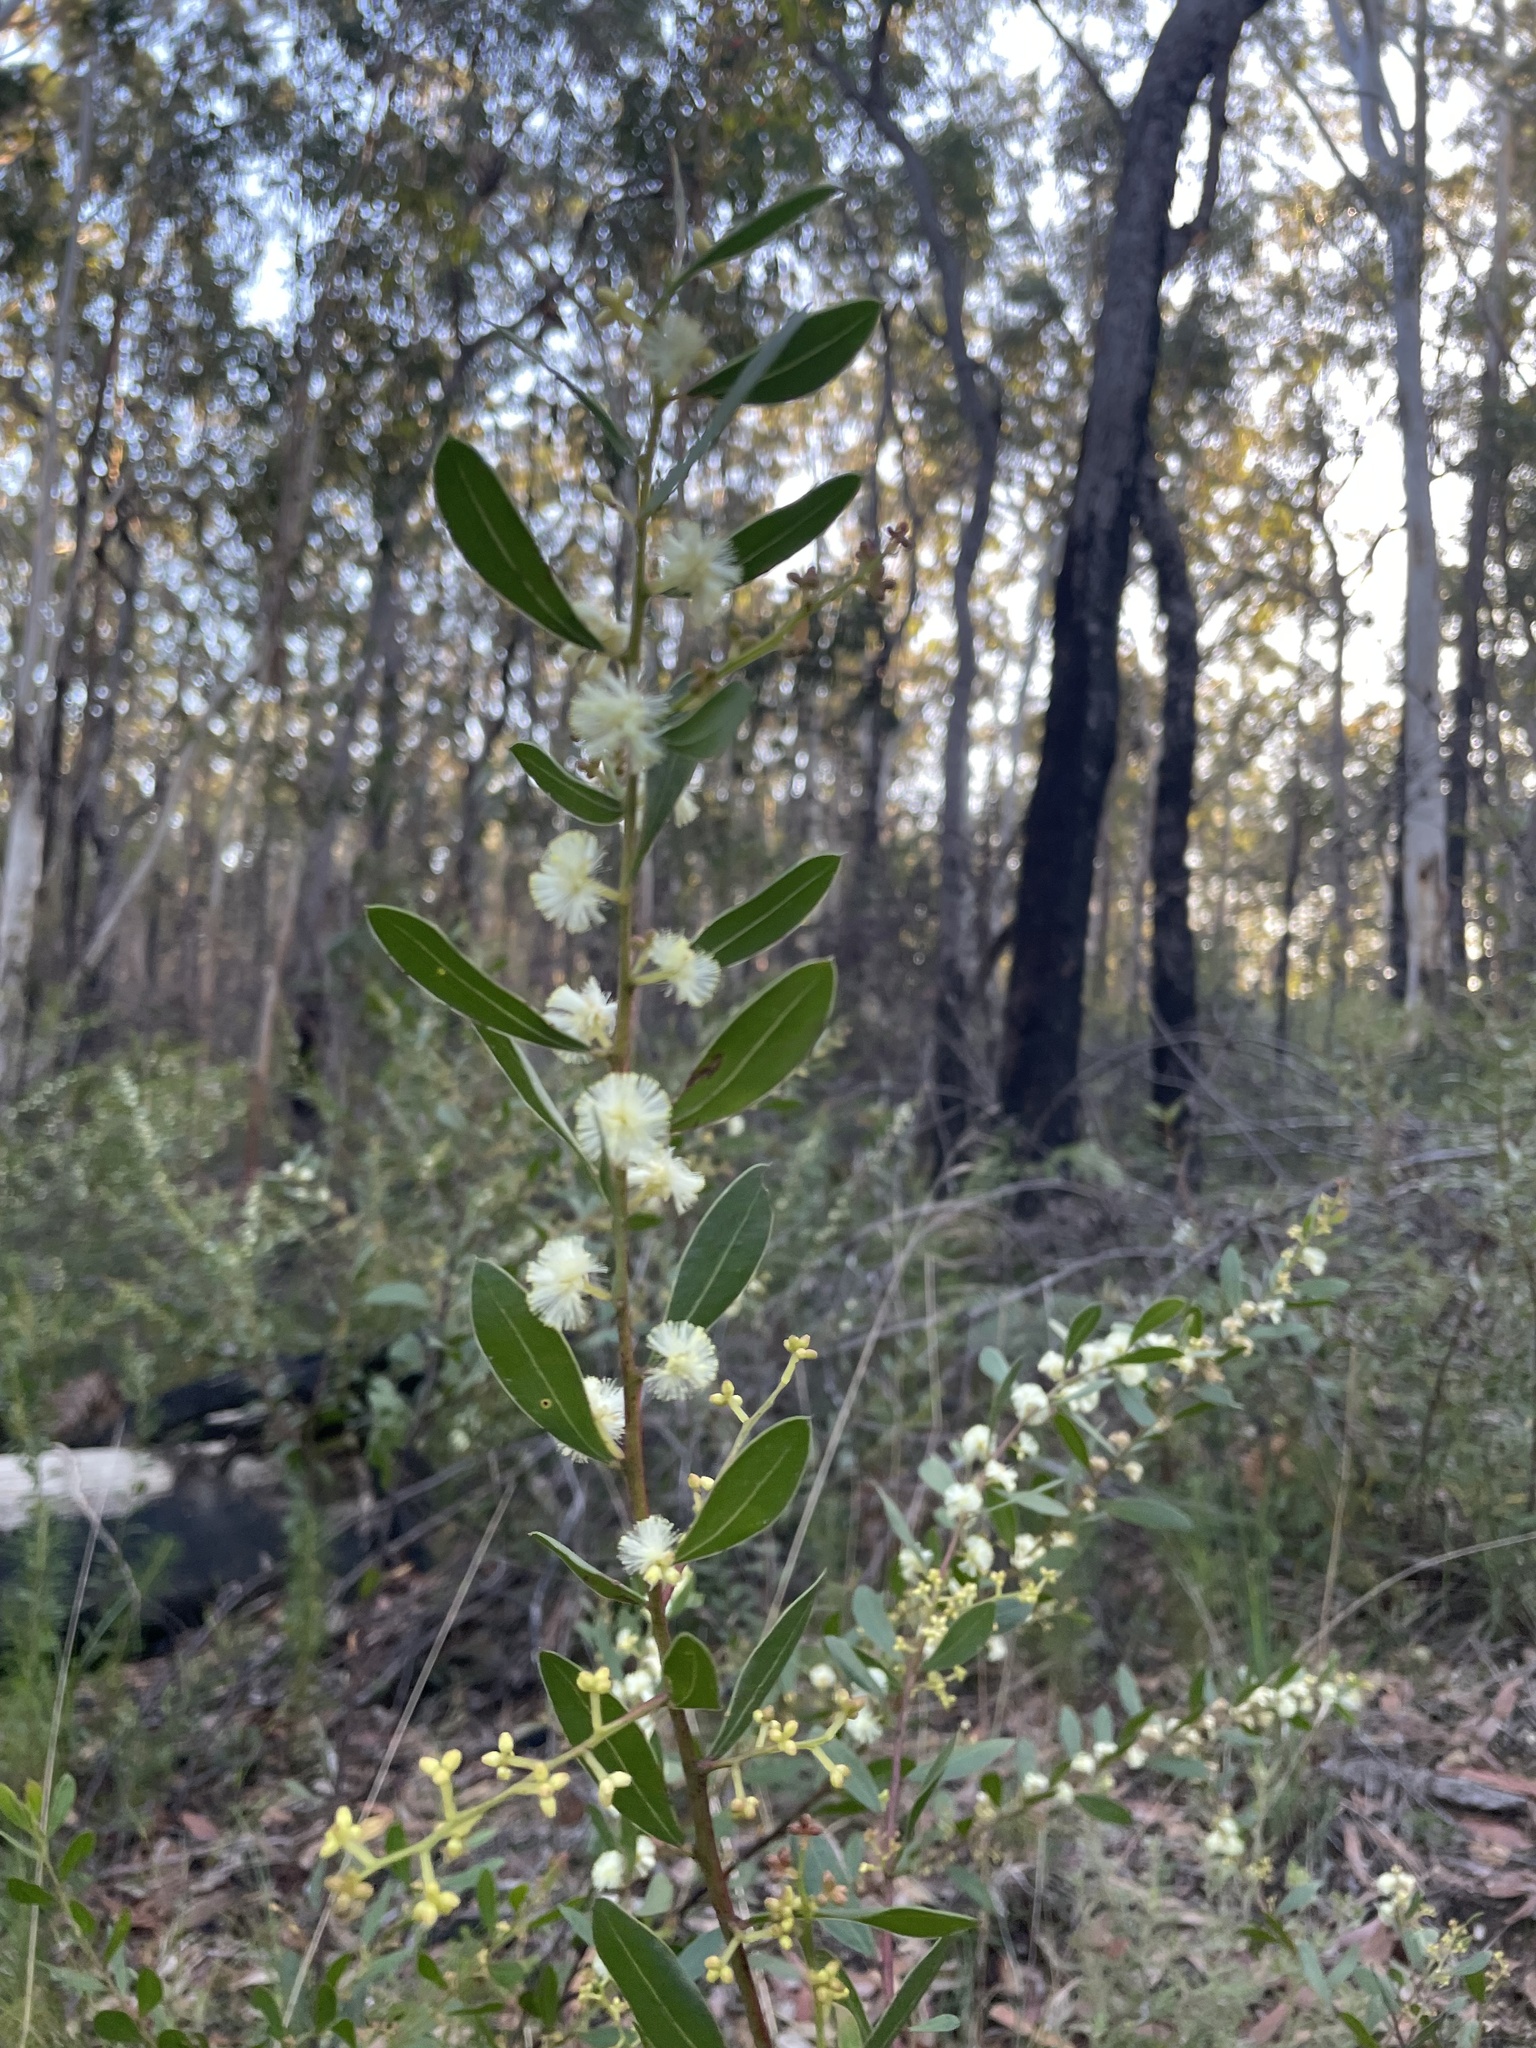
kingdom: Plantae
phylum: Tracheophyta
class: Magnoliopsida
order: Fabales
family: Fabaceae
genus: Acacia
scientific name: Acacia myrtifolia
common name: Myrtle wattle
